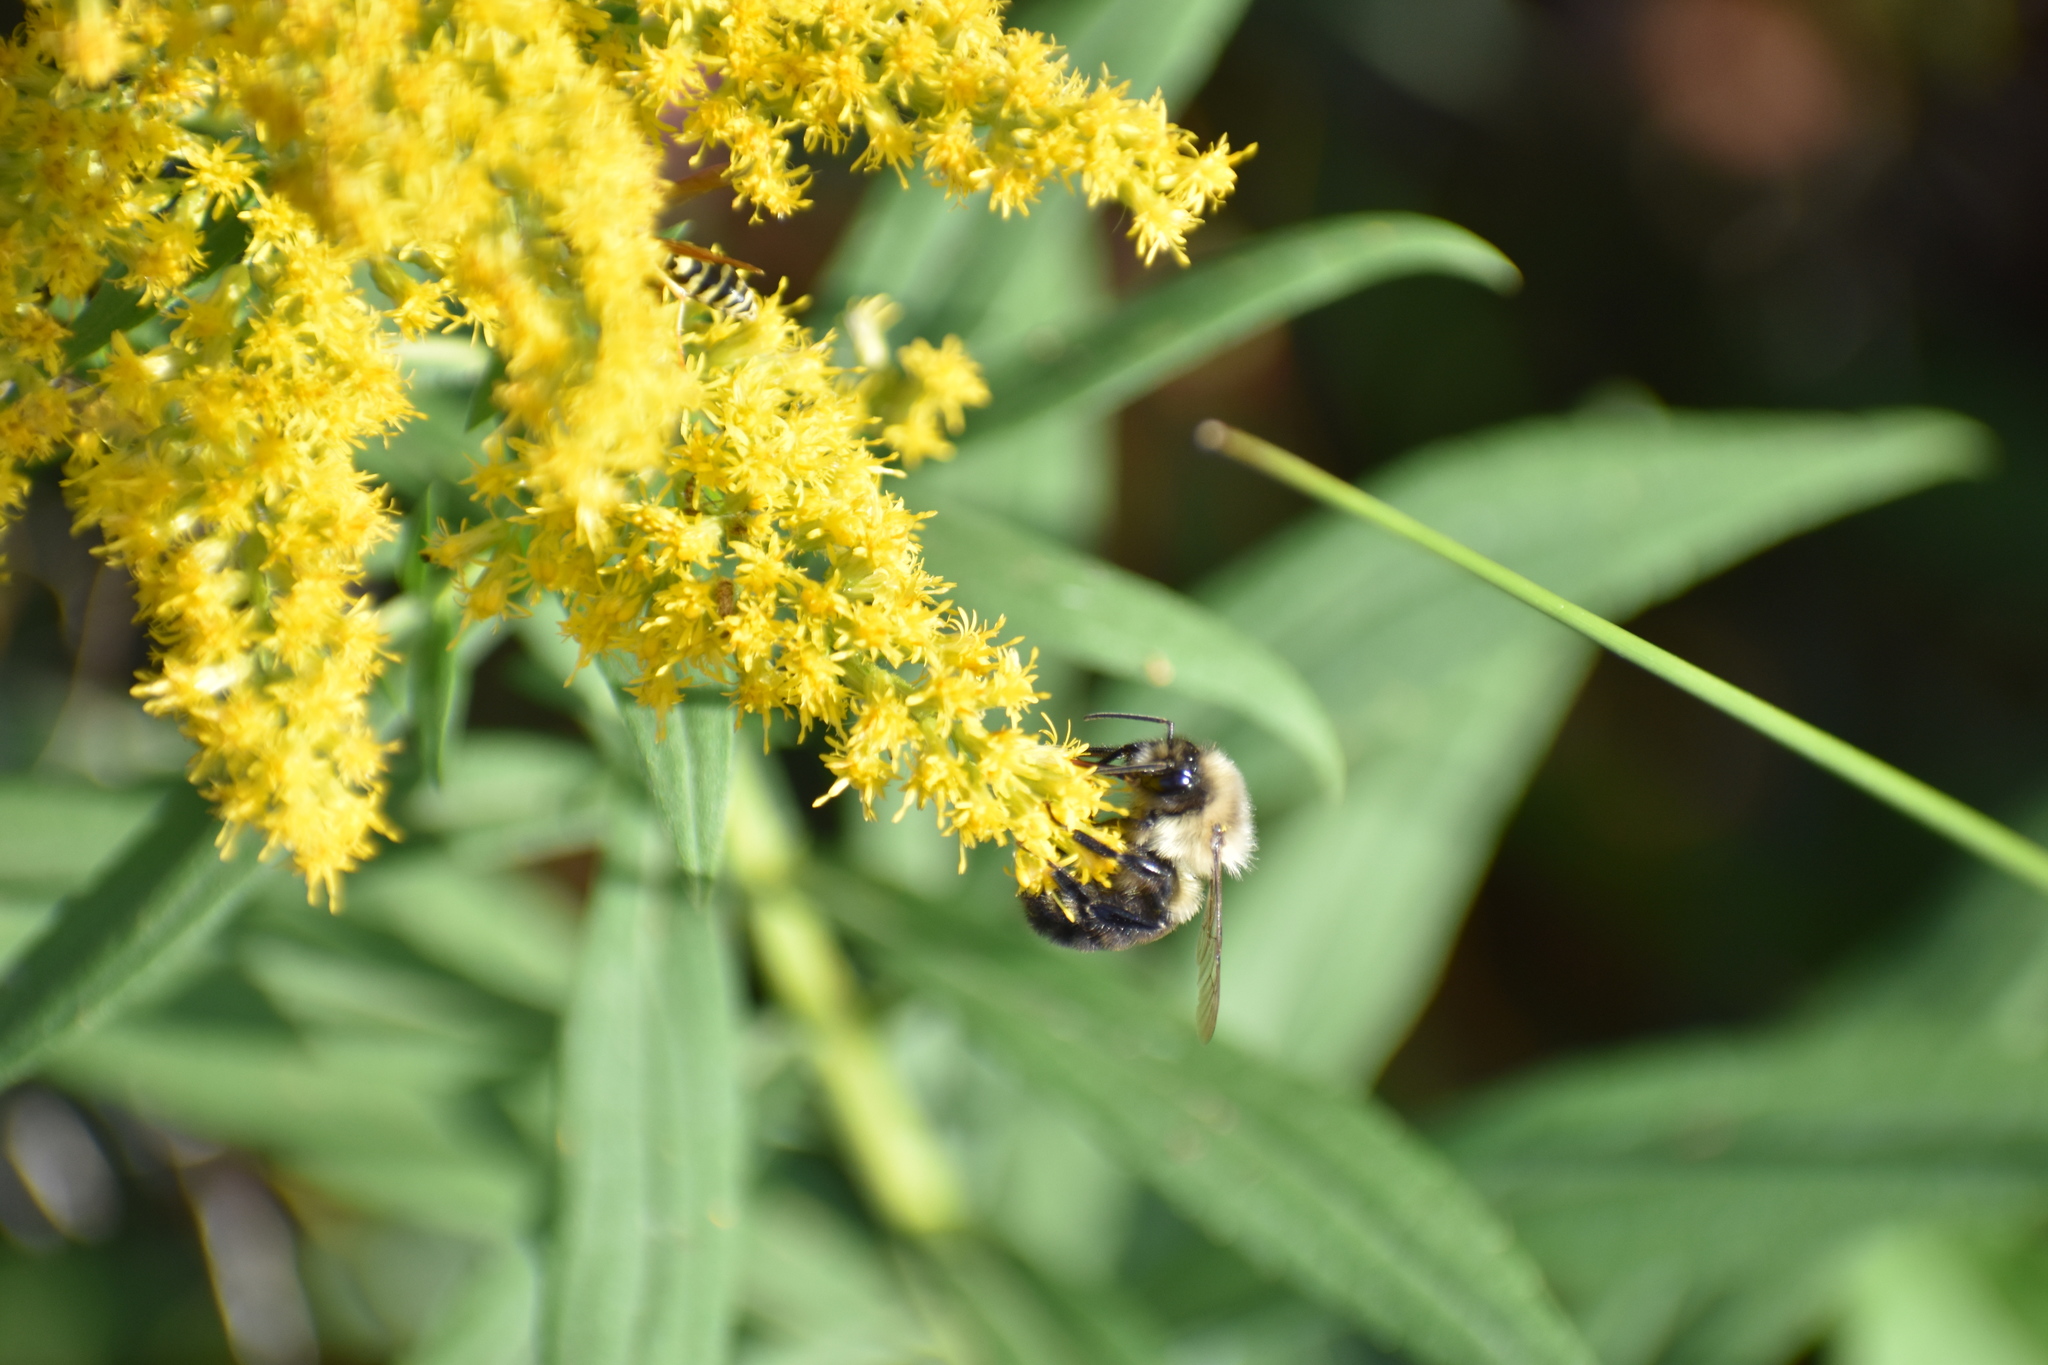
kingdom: Animalia
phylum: Arthropoda
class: Insecta
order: Hymenoptera
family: Apidae
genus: Bombus
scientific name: Bombus impatiens
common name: Common eastern bumble bee
